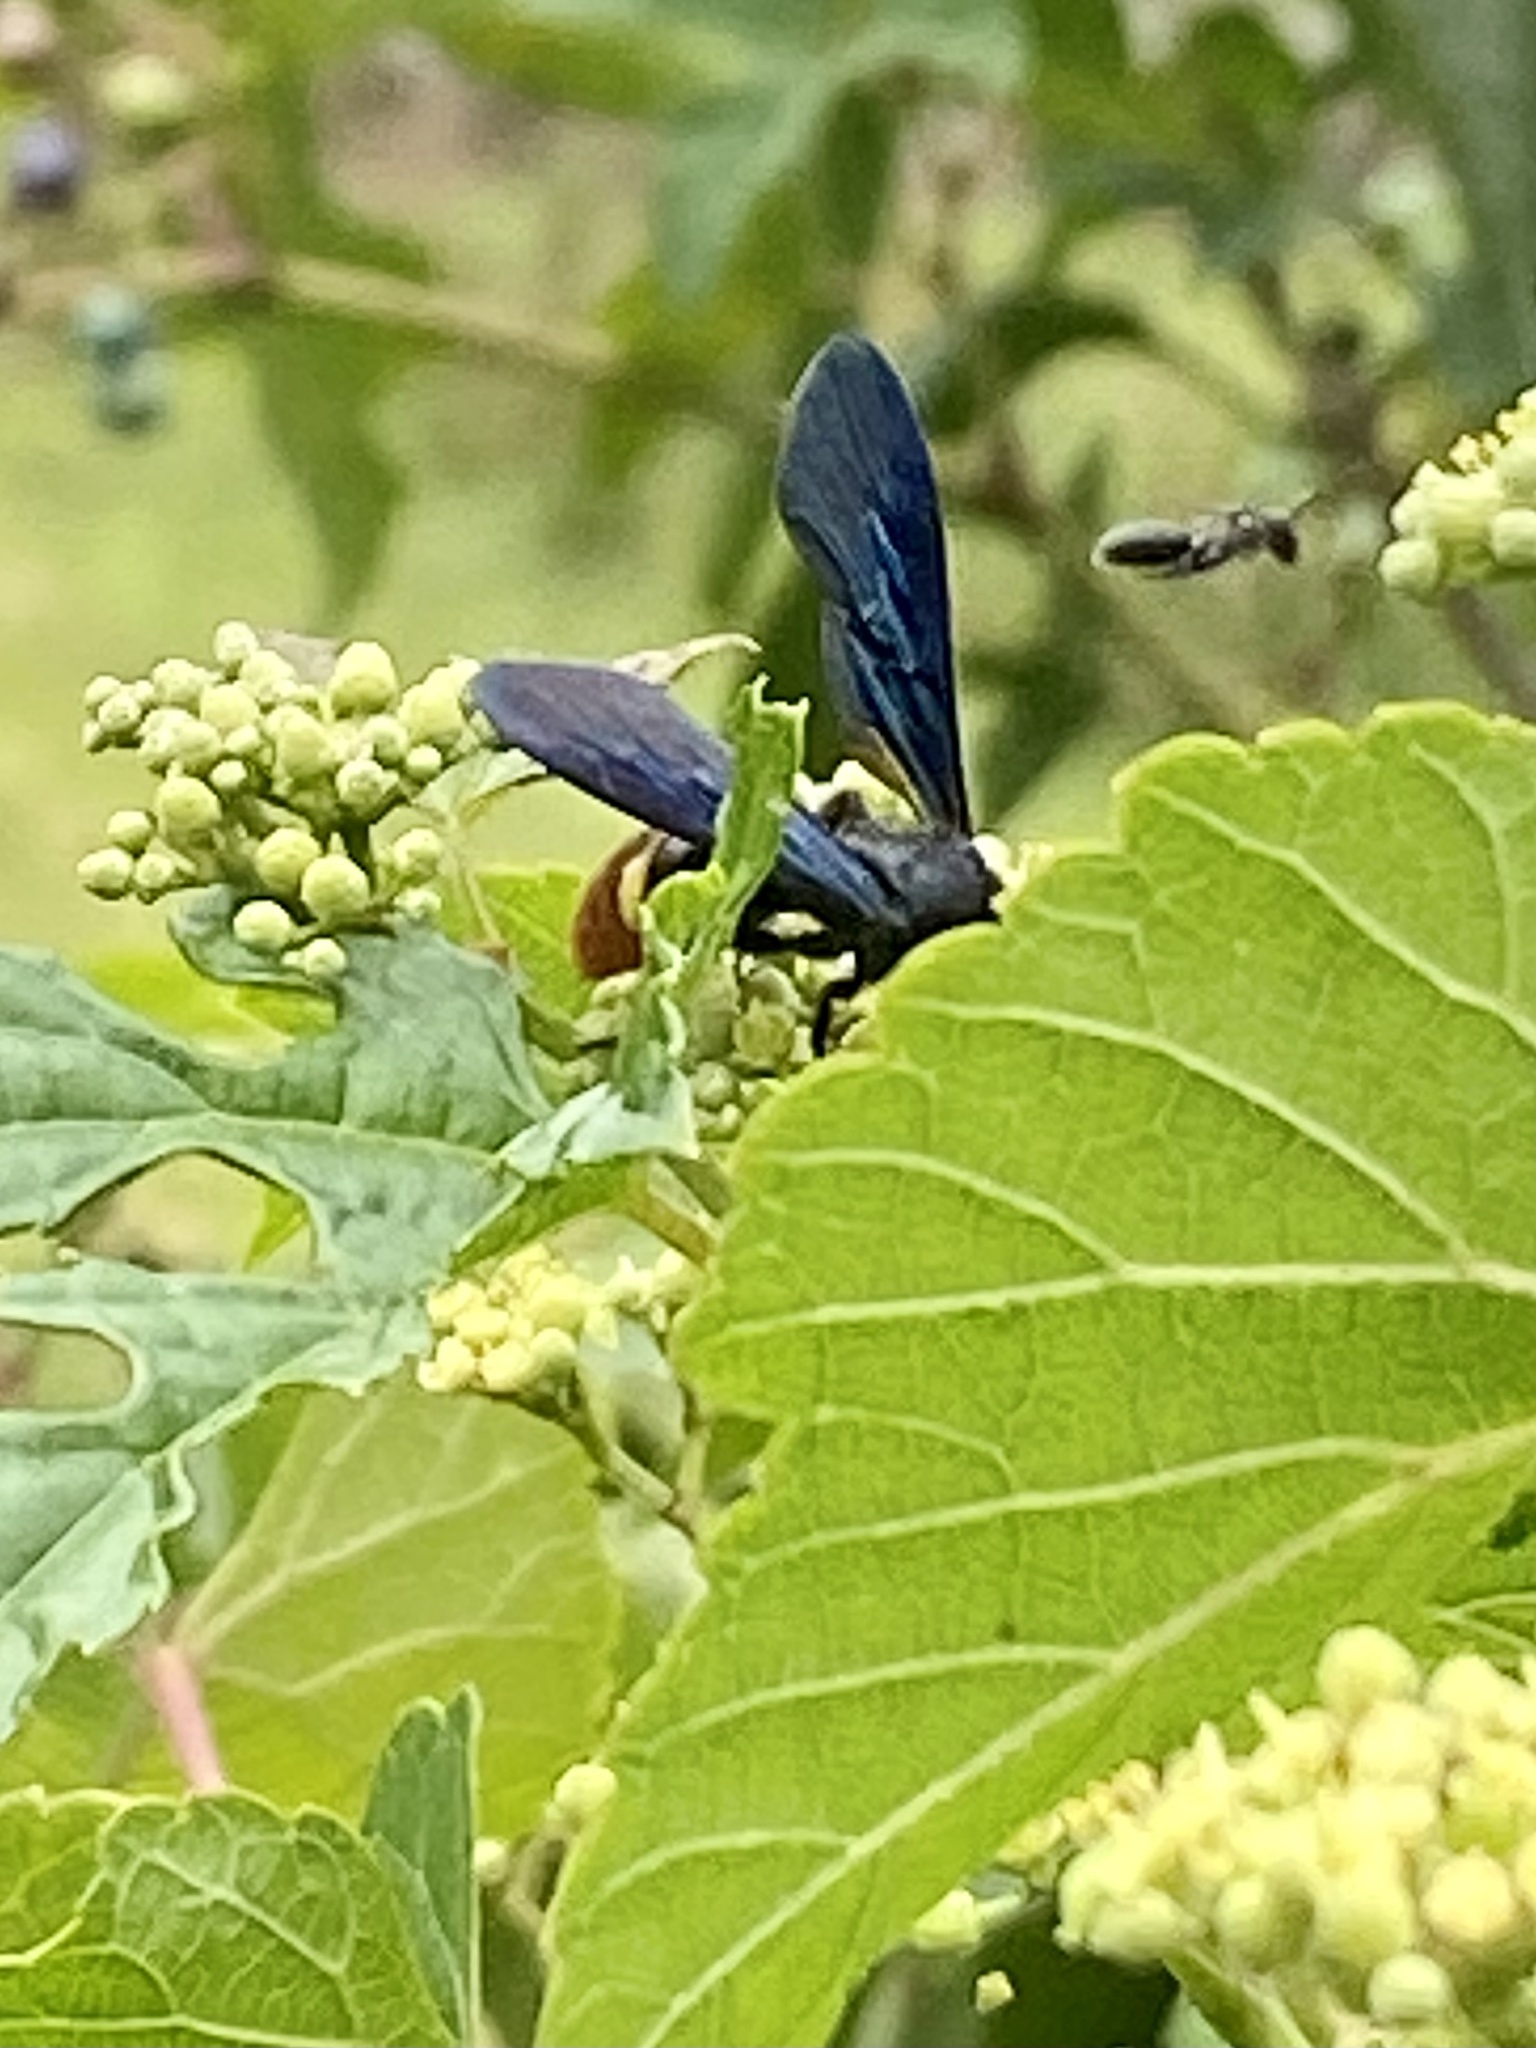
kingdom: Animalia
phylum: Arthropoda
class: Insecta
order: Hymenoptera
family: Scoliidae
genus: Scolia
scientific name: Scolia dubia
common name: Blue-winged scoliid wasp
